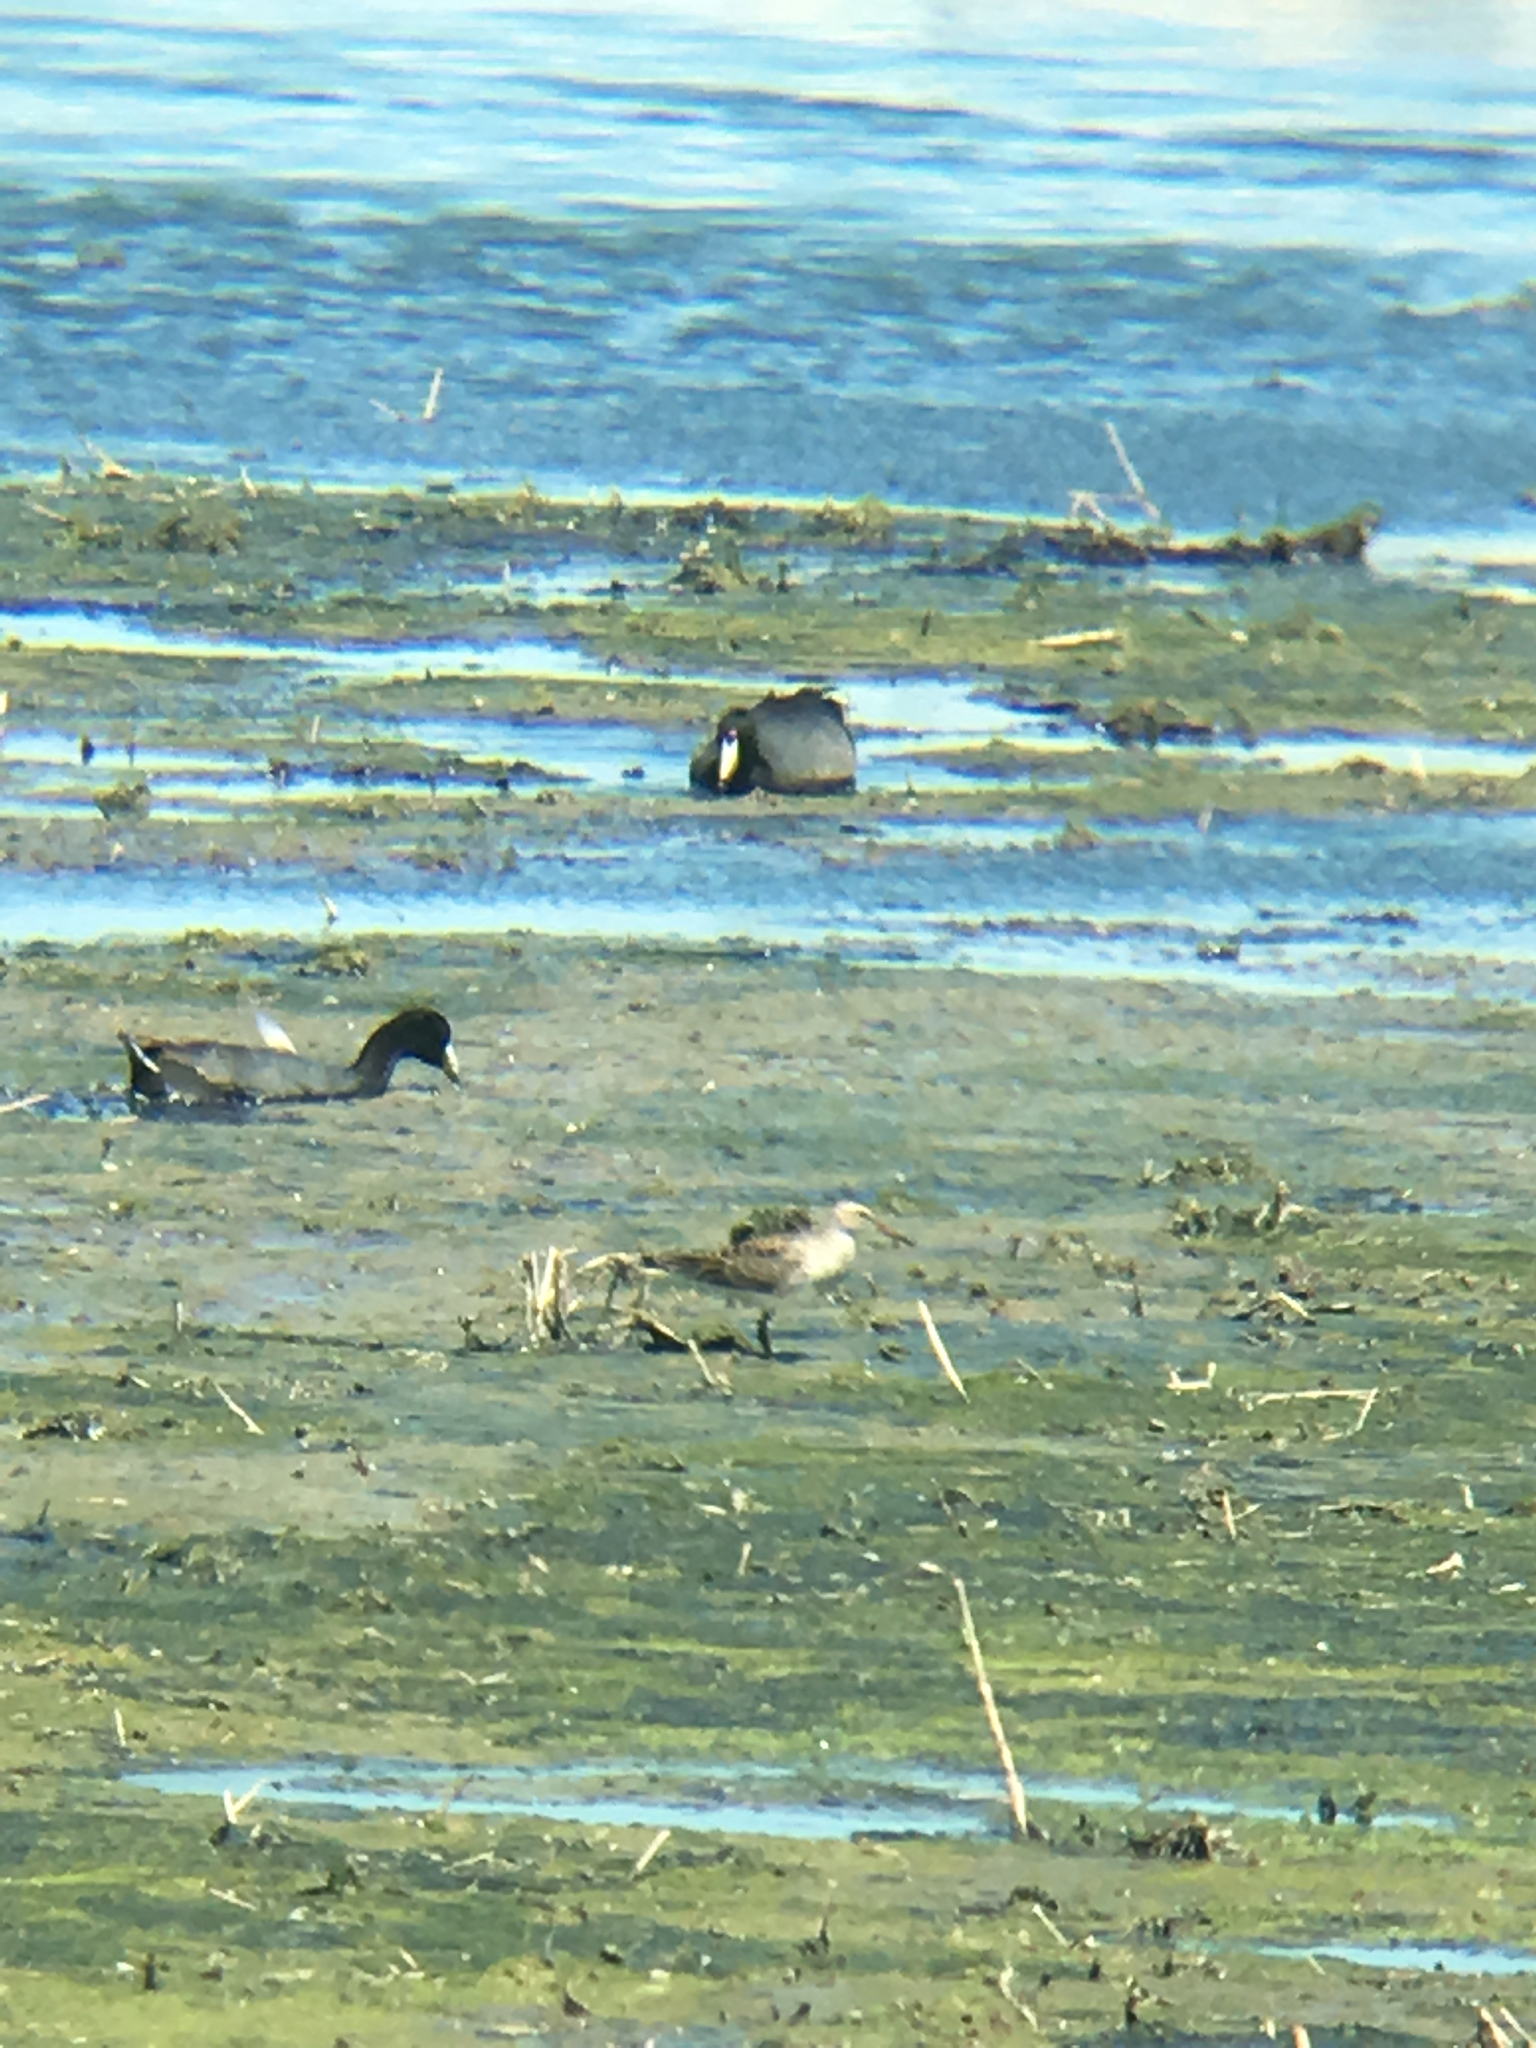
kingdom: Animalia
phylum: Chordata
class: Aves
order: Charadriiformes
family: Scolopacidae
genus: Calidris
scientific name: Calidris melanotos
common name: Pectoral sandpiper
